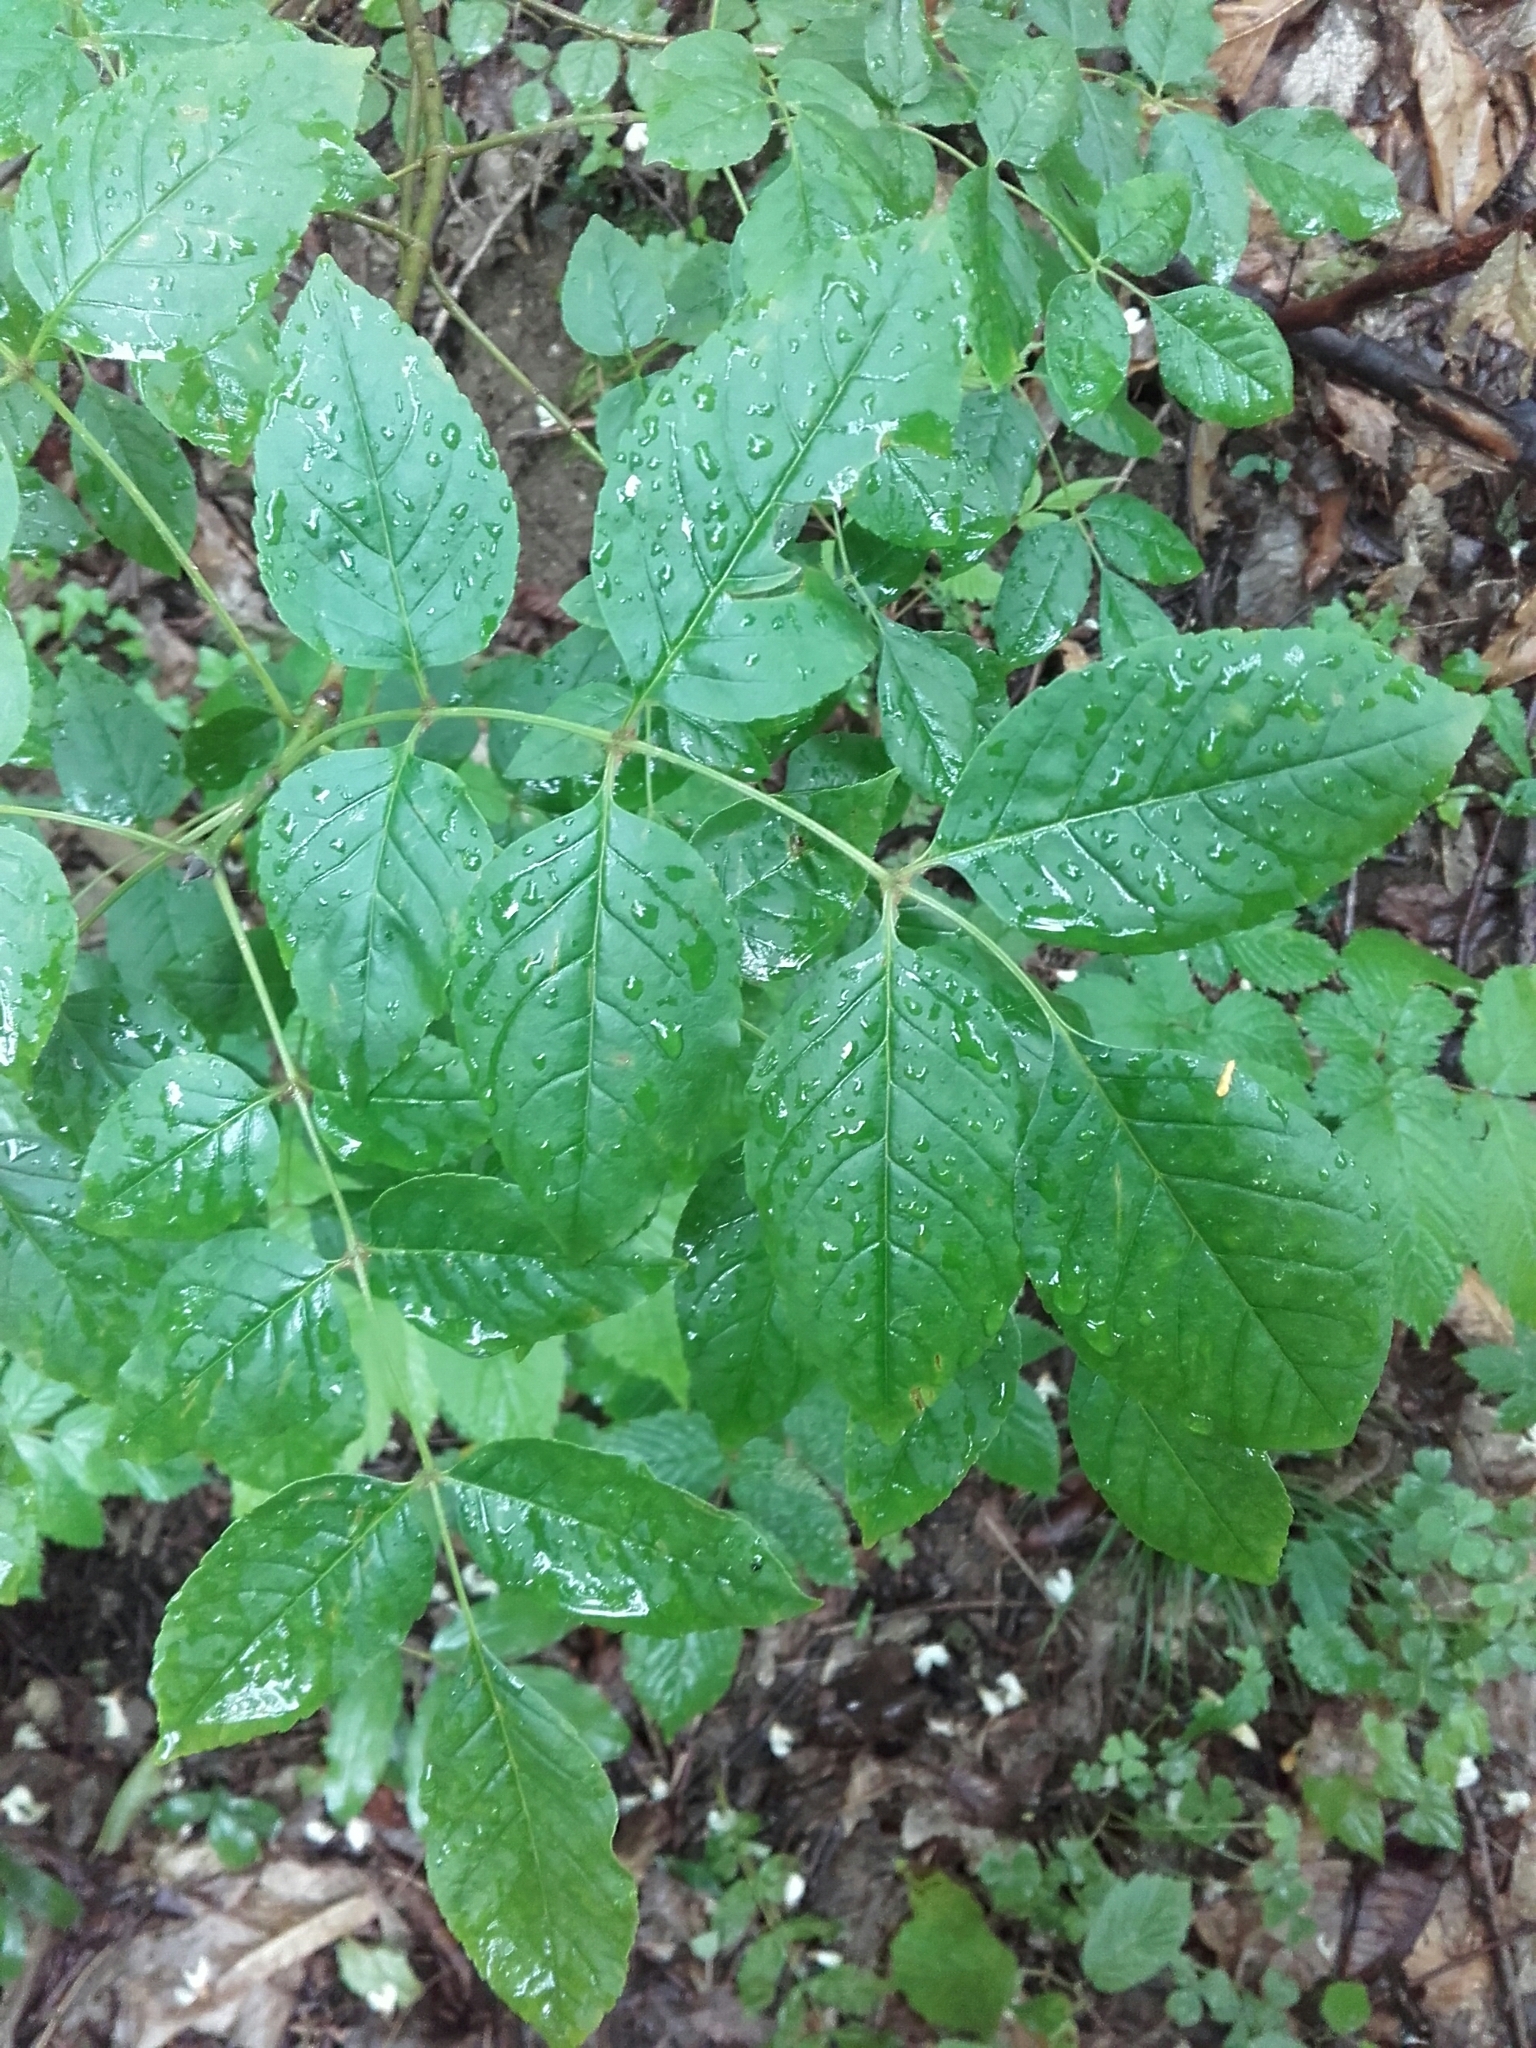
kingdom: Plantae
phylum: Tracheophyta
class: Magnoliopsida
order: Lamiales
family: Oleaceae
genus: Fraxinus
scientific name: Fraxinus excelsior
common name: European ash
